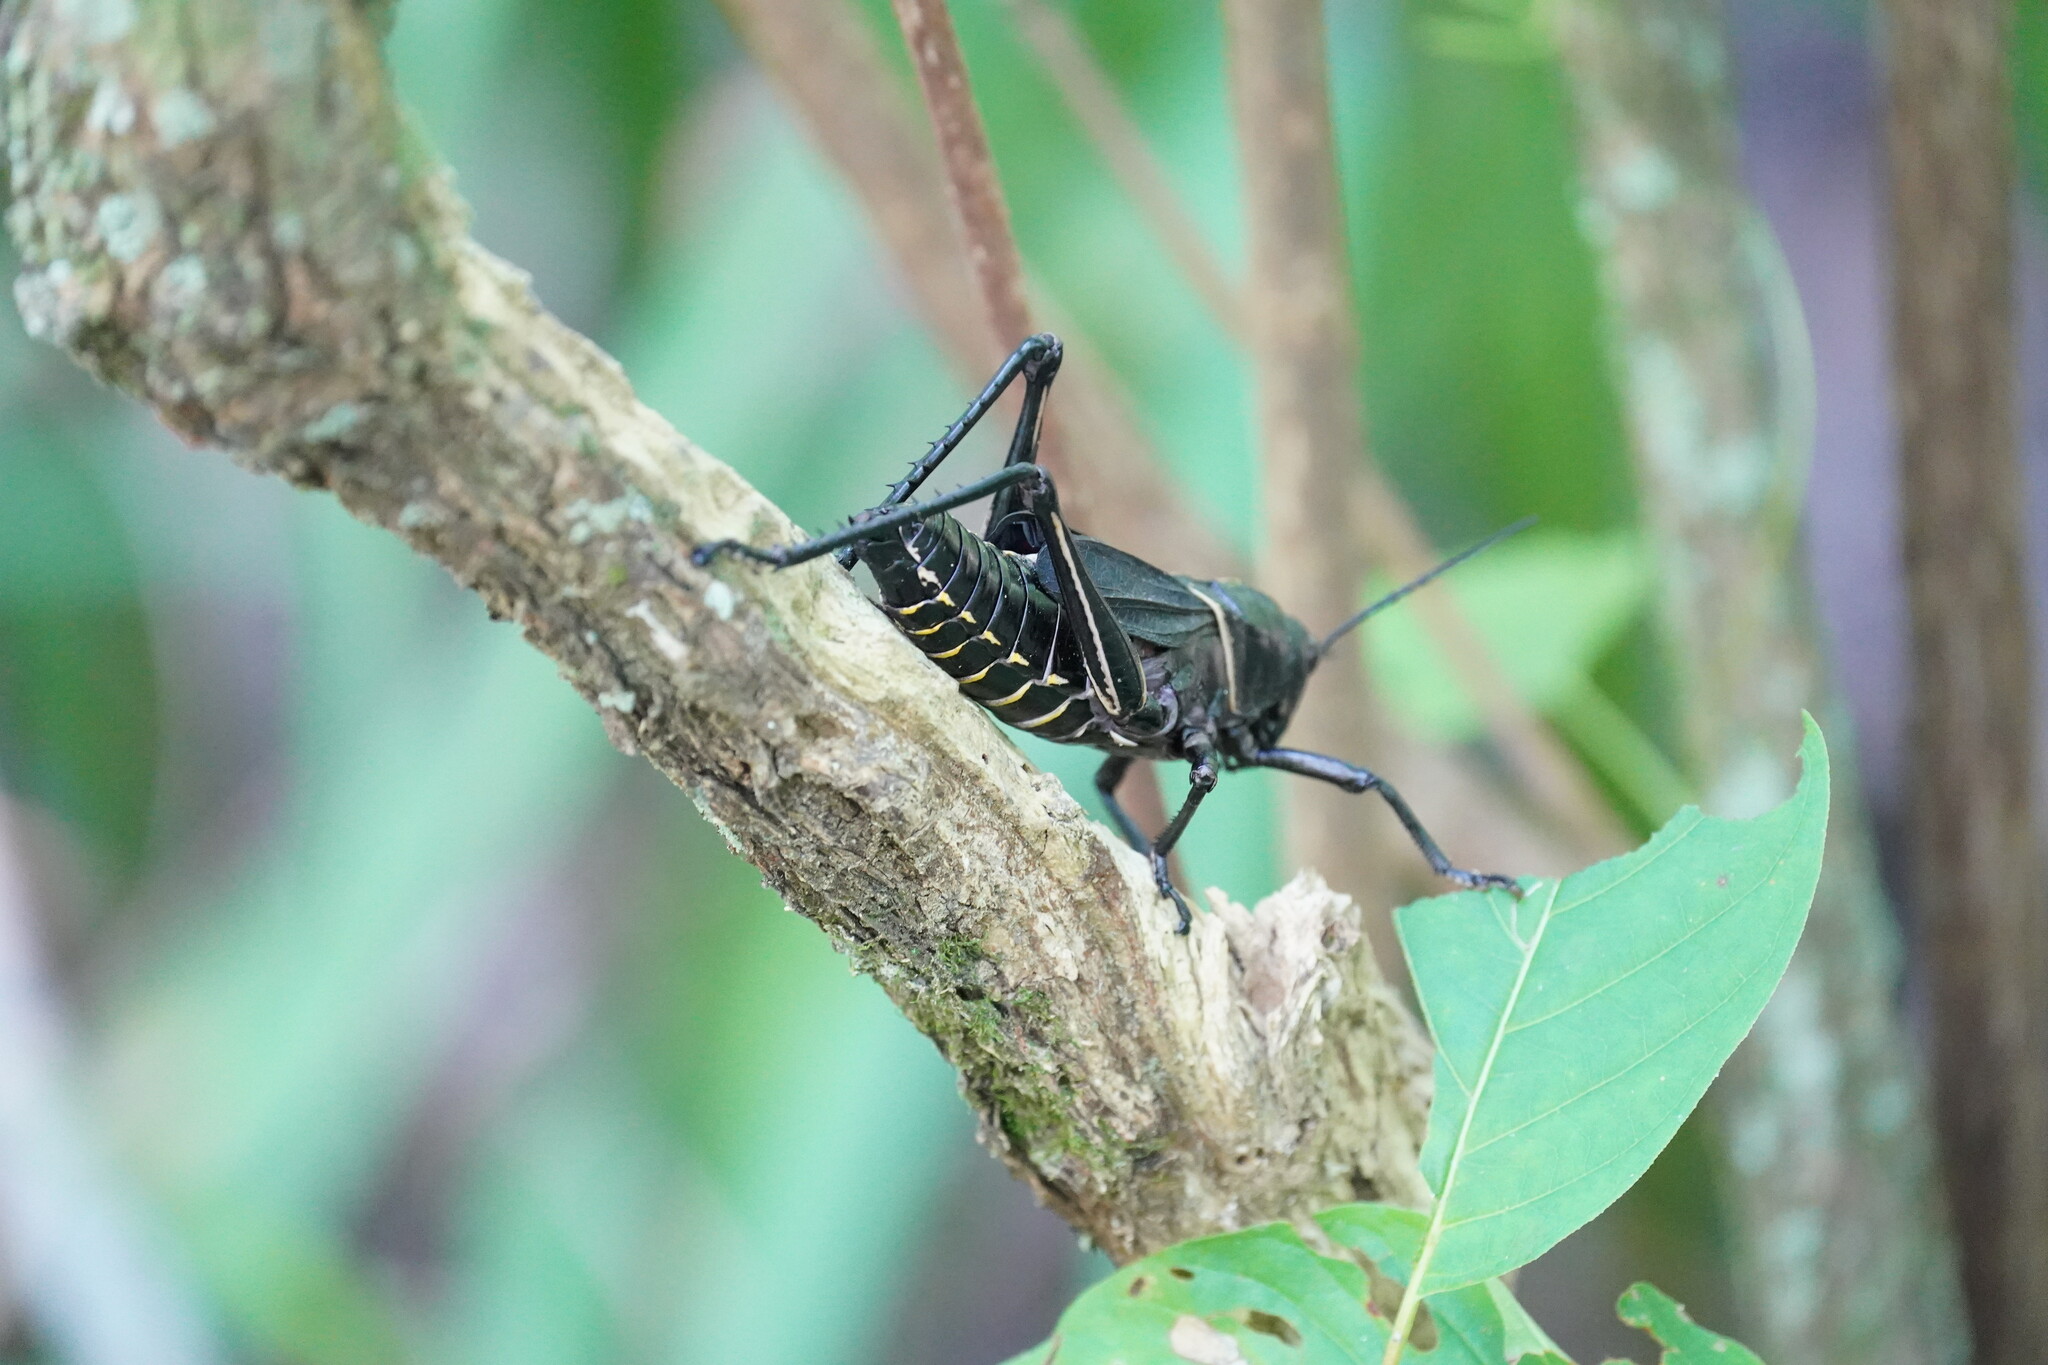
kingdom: Animalia
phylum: Arthropoda
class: Insecta
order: Orthoptera
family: Romaleidae
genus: Romalea
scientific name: Romalea microptera
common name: Eastern lubber grasshopper
